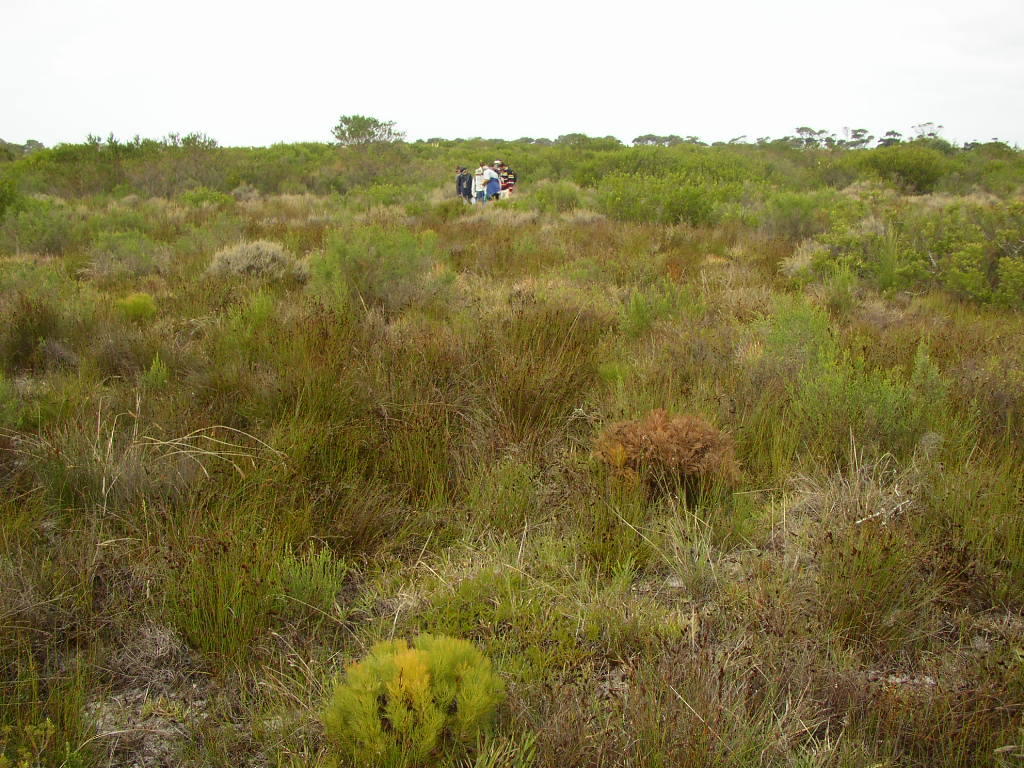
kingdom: Plantae
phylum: Tracheophyta
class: Magnoliopsida
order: Proteales
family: Proteaceae
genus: Serruria
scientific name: Serruria glomerata
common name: Cluster spiderhead
